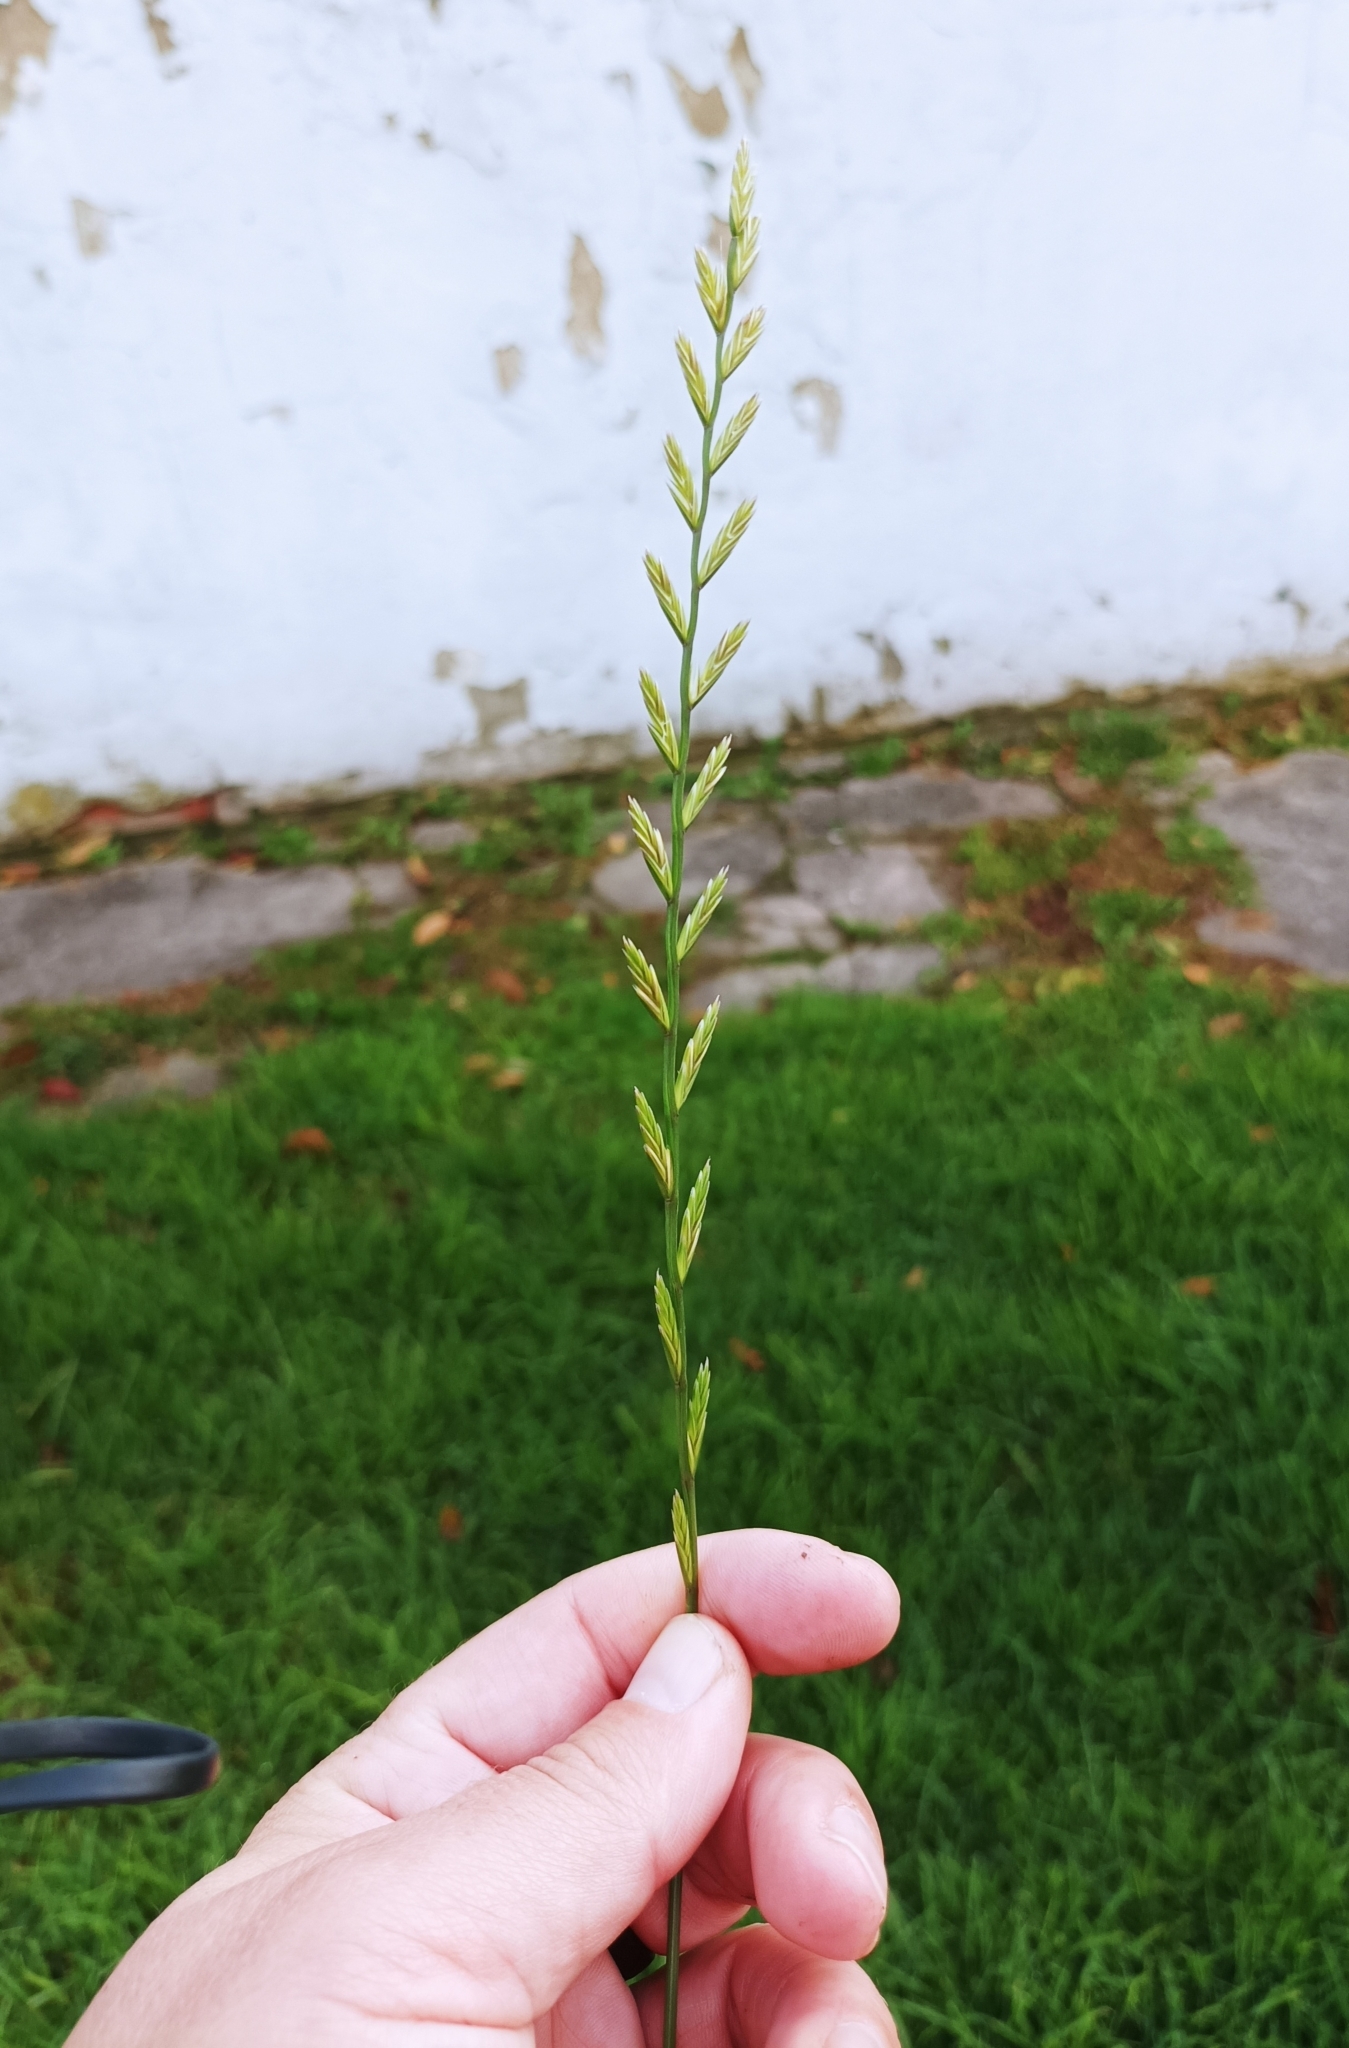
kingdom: Plantae
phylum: Tracheophyta
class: Liliopsida
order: Poales
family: Poaceae
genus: Lolium
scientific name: Lolium perenne
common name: Perennial ryegrass
